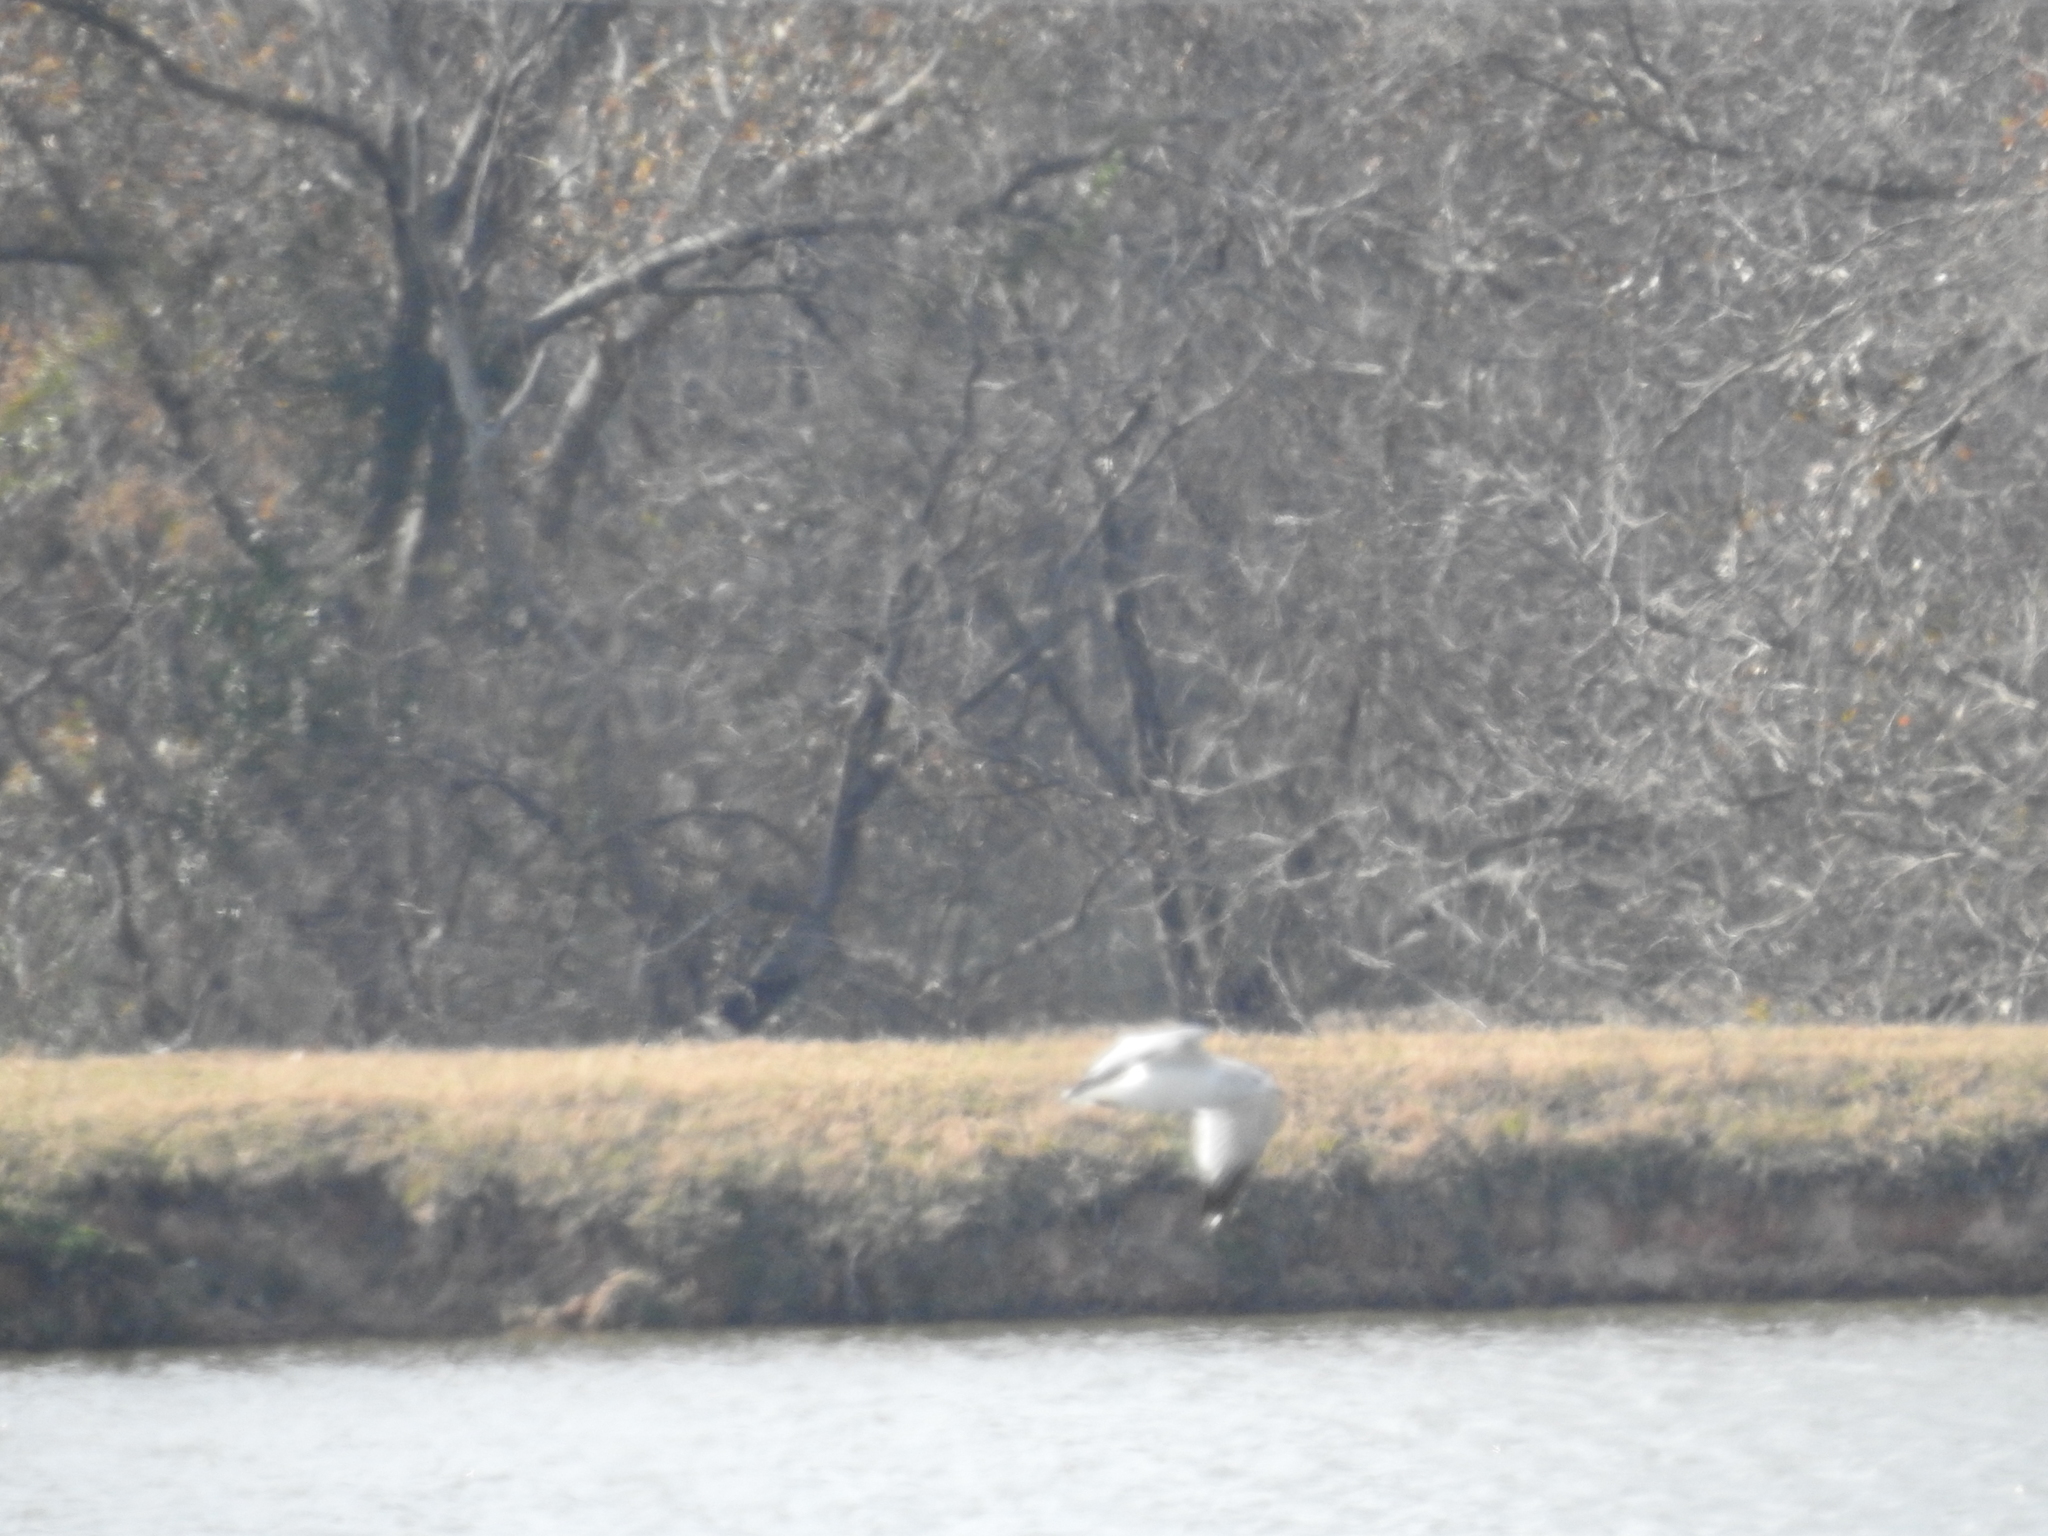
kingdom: Animalia
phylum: Chordata
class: Aves
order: Charadriiformes
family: Laridae
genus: Larus
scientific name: Larus delawarensis
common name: Ring-billed gull
